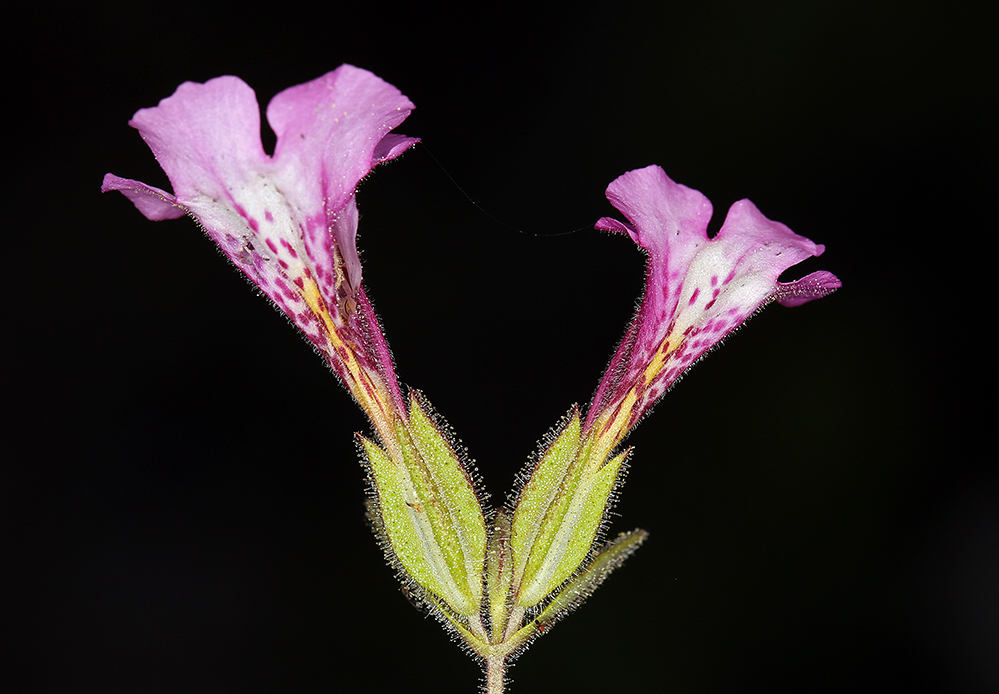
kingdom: Plantae
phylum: Tracheophyta
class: Magnoliopsida
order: Lamiales
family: Phrymaceae
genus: Diplacus
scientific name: Diplacus layneae
